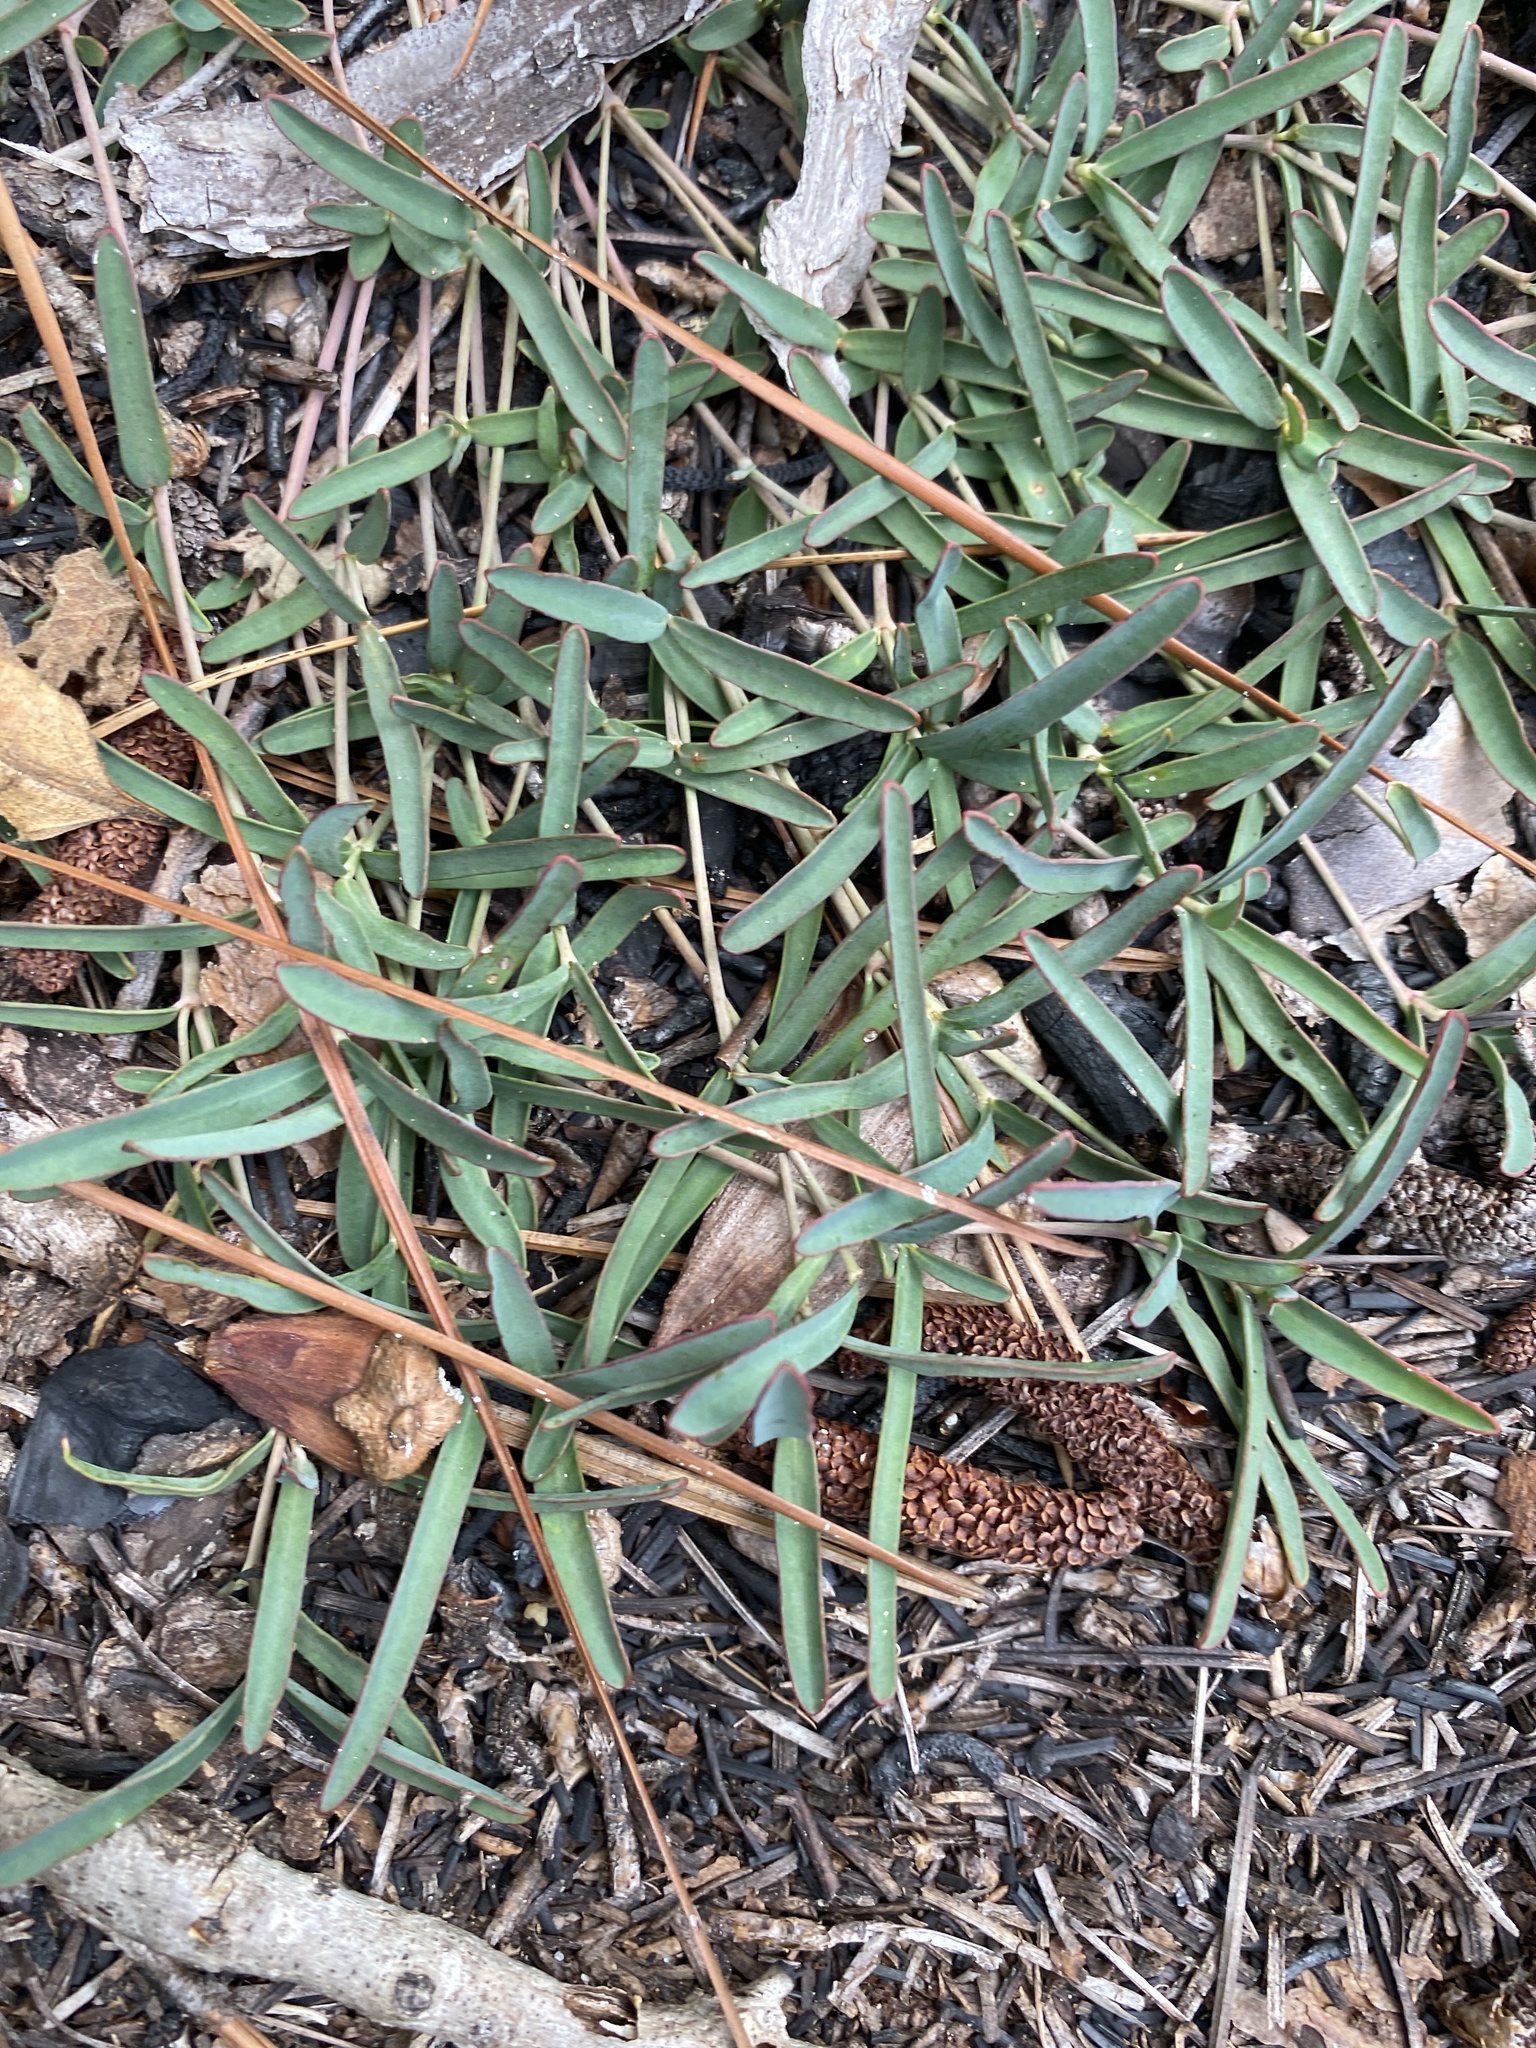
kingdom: Plantae
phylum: Tracheophyta
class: Magnoliopsida
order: Malpighiales
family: Euphorbiaceae
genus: Euphorbia
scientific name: Euphorbia ipecacuanhae
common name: Carolina ipecac
